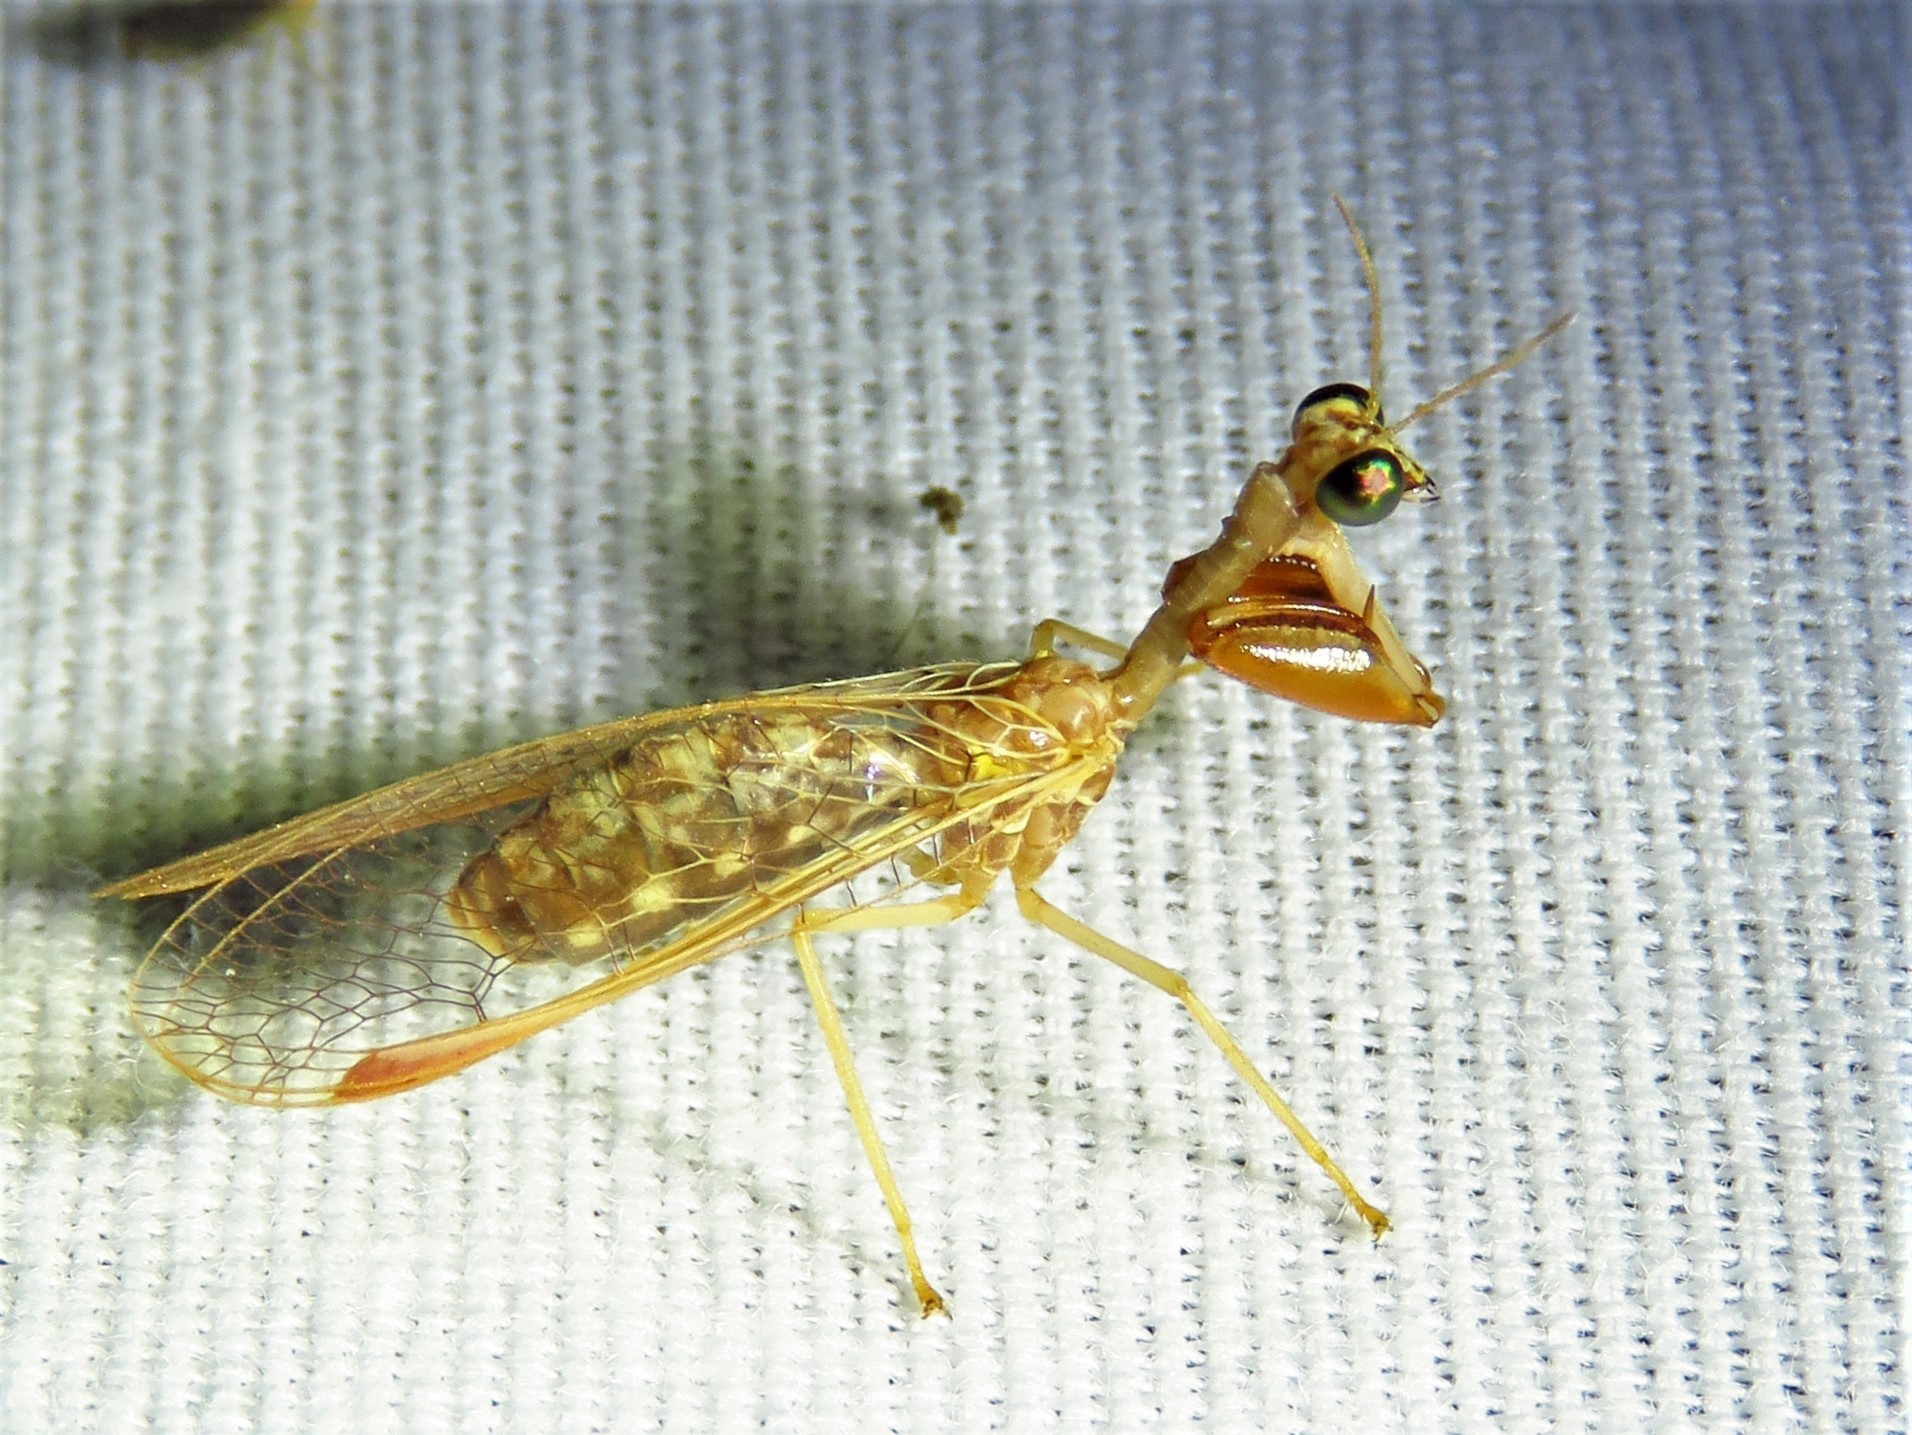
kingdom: Animalia
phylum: Arthropoda
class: Insecta
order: Neuroptera
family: Mantispidae
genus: Dicromantispa
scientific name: Dicromantispa sayi
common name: Say's mantidfly
